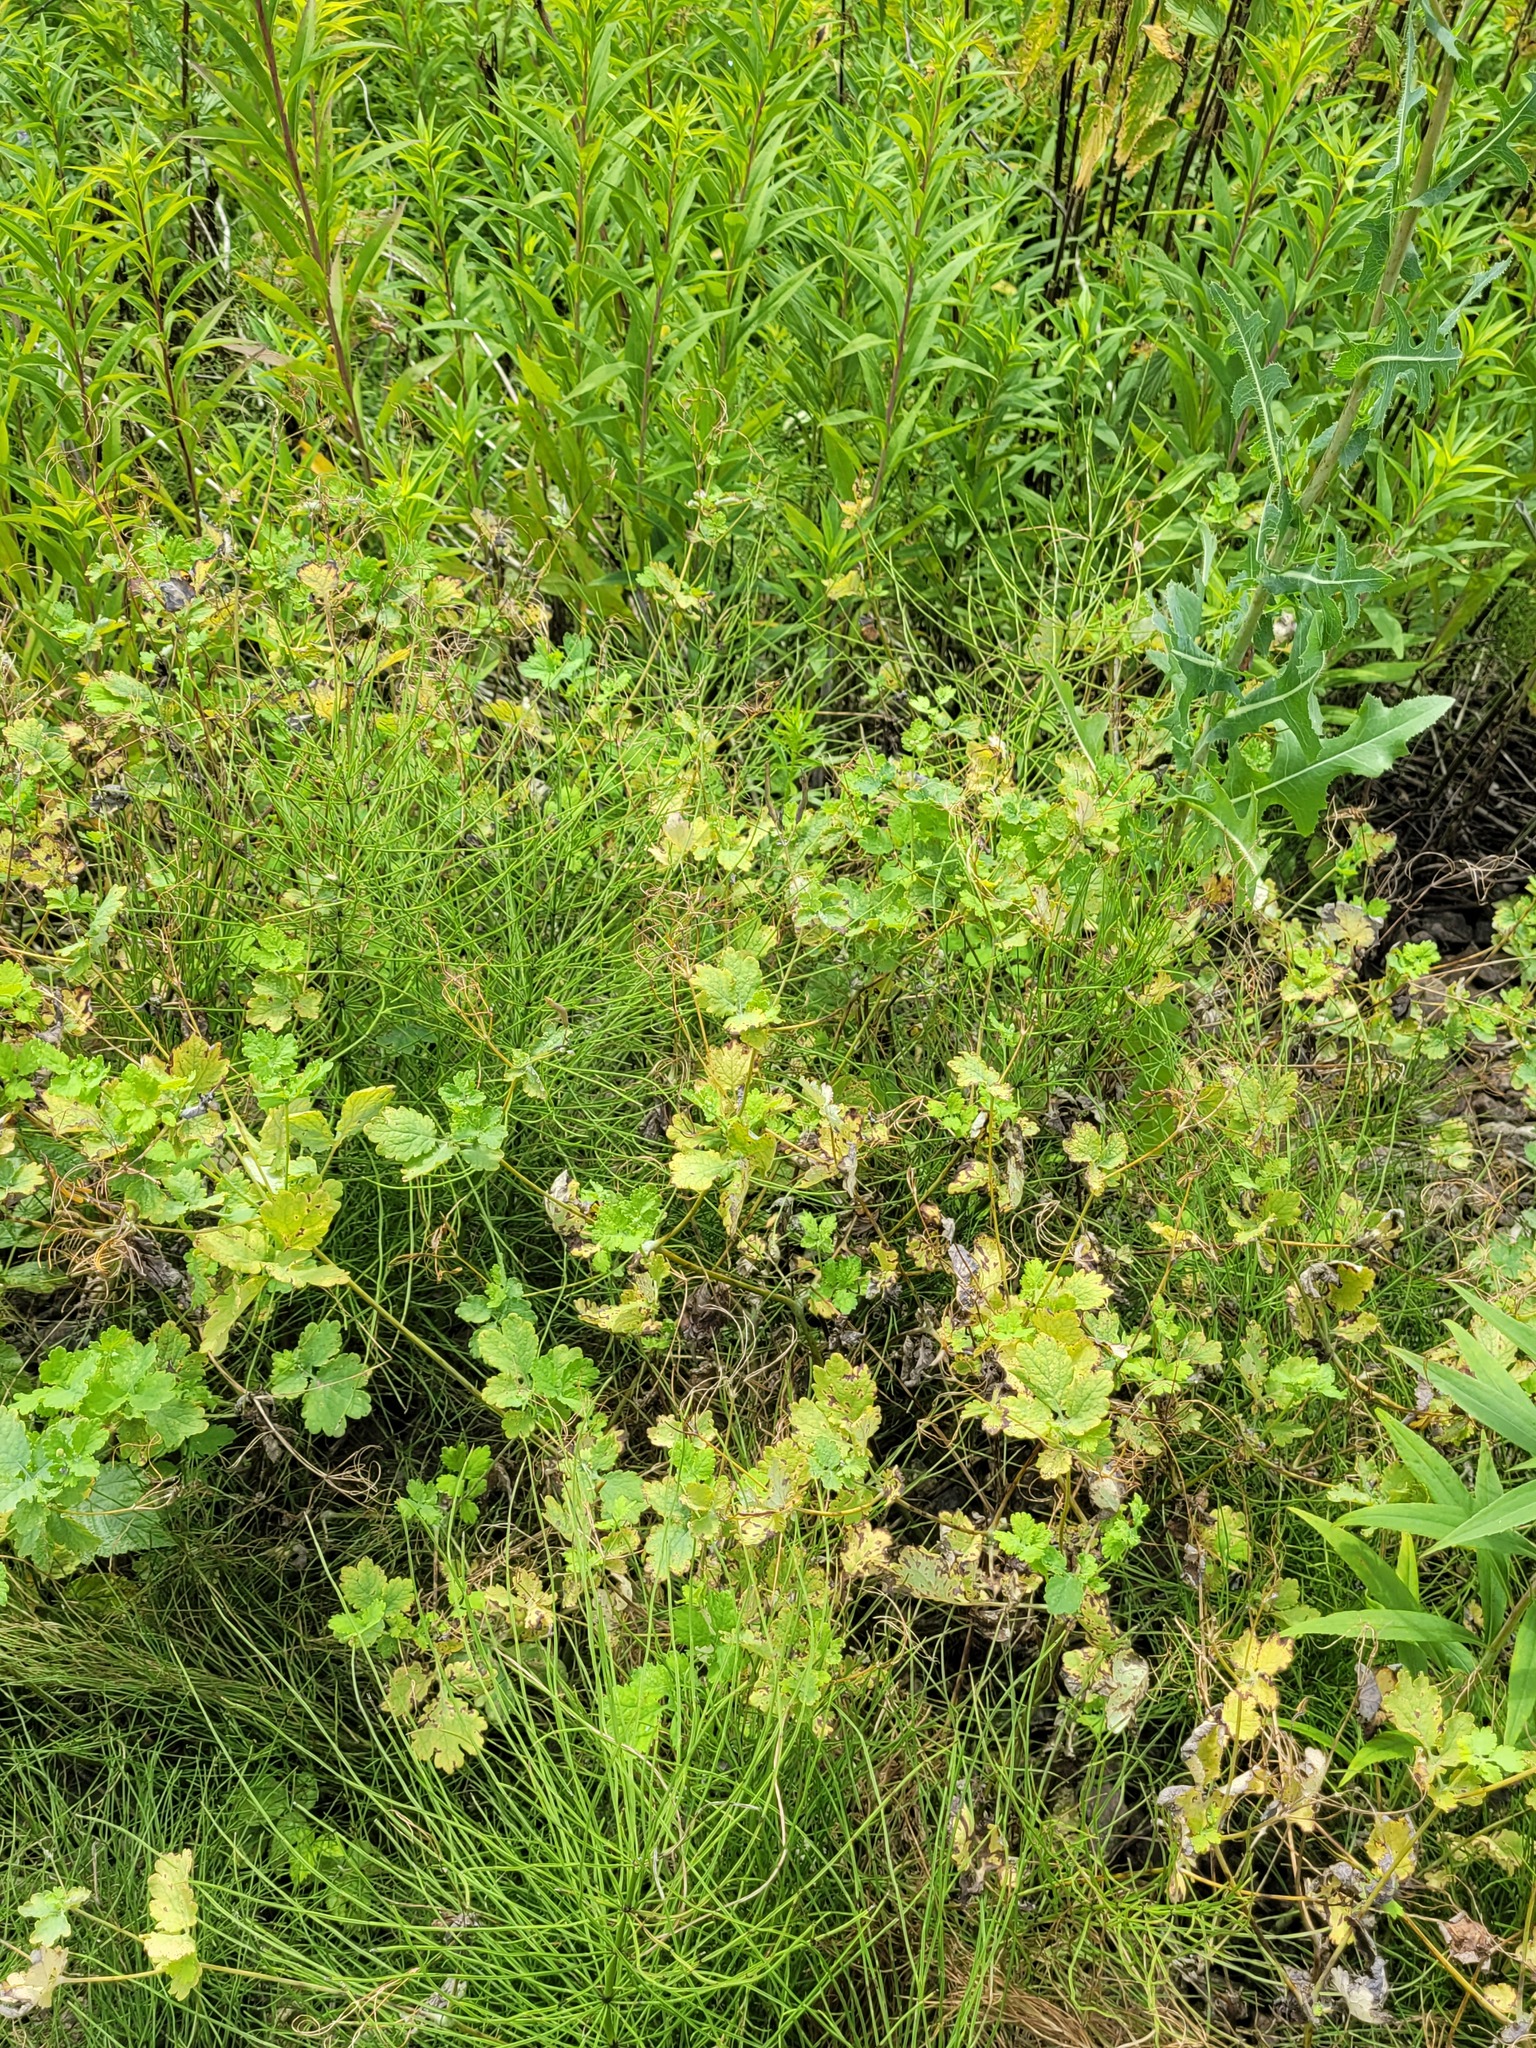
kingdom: Plantae
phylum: Tracheophyta
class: Magnoliopsida
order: Ranunculales
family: Papaveraceae
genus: Chelidonium
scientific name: Chelidonium majus
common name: Greater celandine
